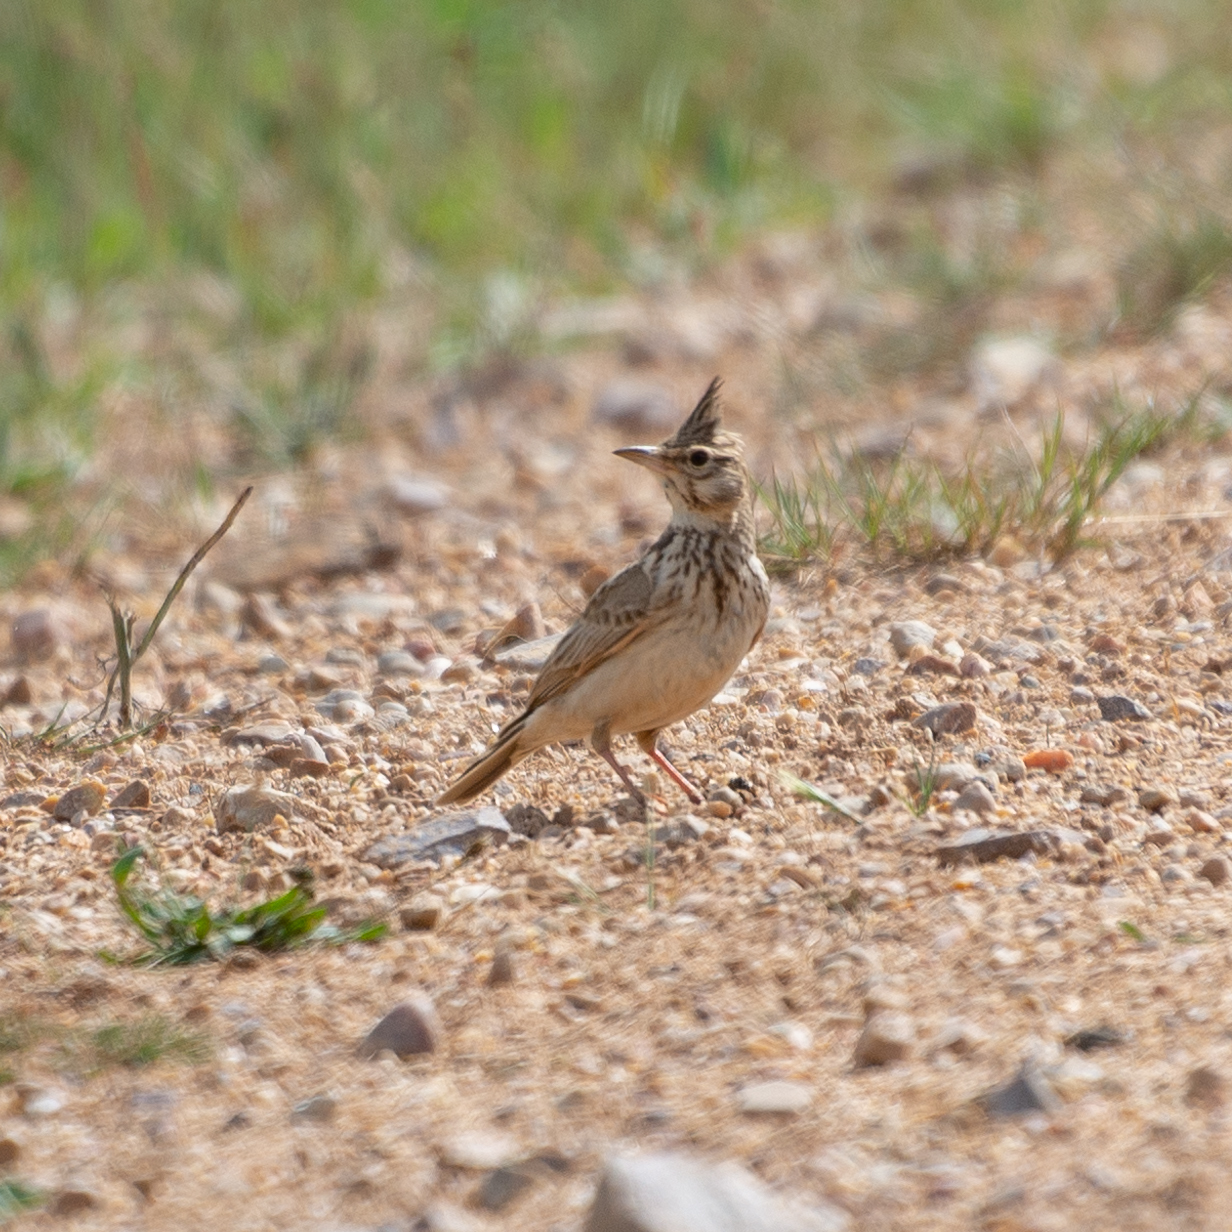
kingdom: Animalia
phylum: Chordata
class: Aves
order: Passeriformes
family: Alaudidae
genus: Galerida
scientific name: Galerida cristata
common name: Crested lark
